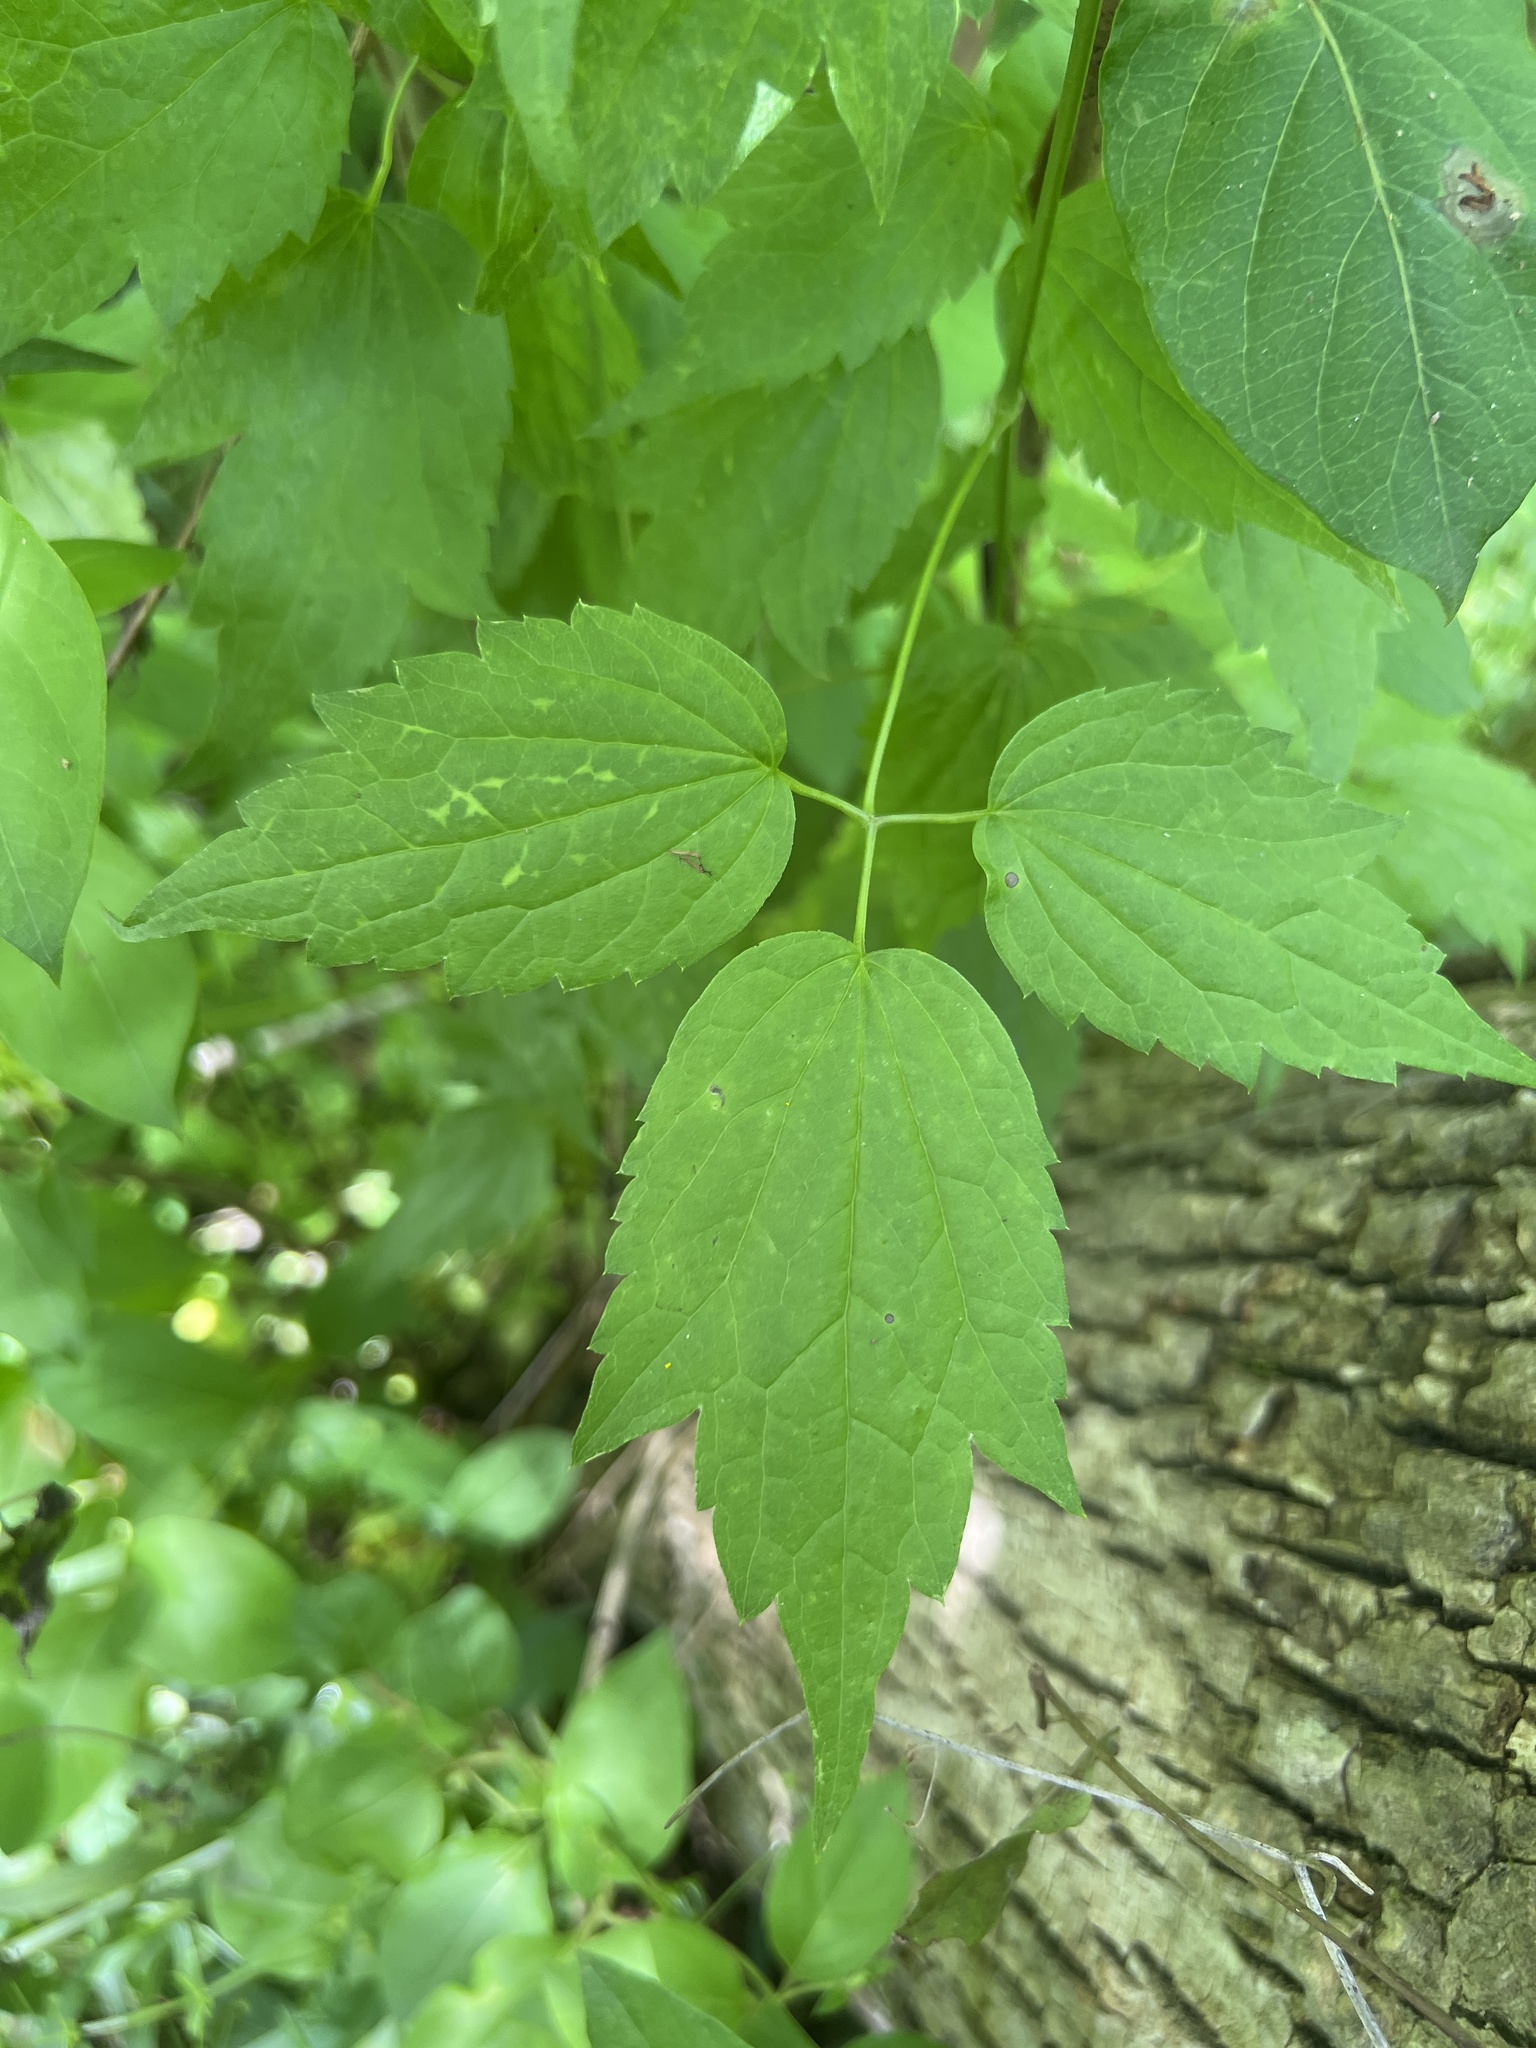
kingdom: Plantae
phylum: Tracheophyta
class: Magnoliopsida
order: Ranunculales
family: Ranunculaceae
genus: Clematis
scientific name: Clematis virginiana
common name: Virgin's-bower
